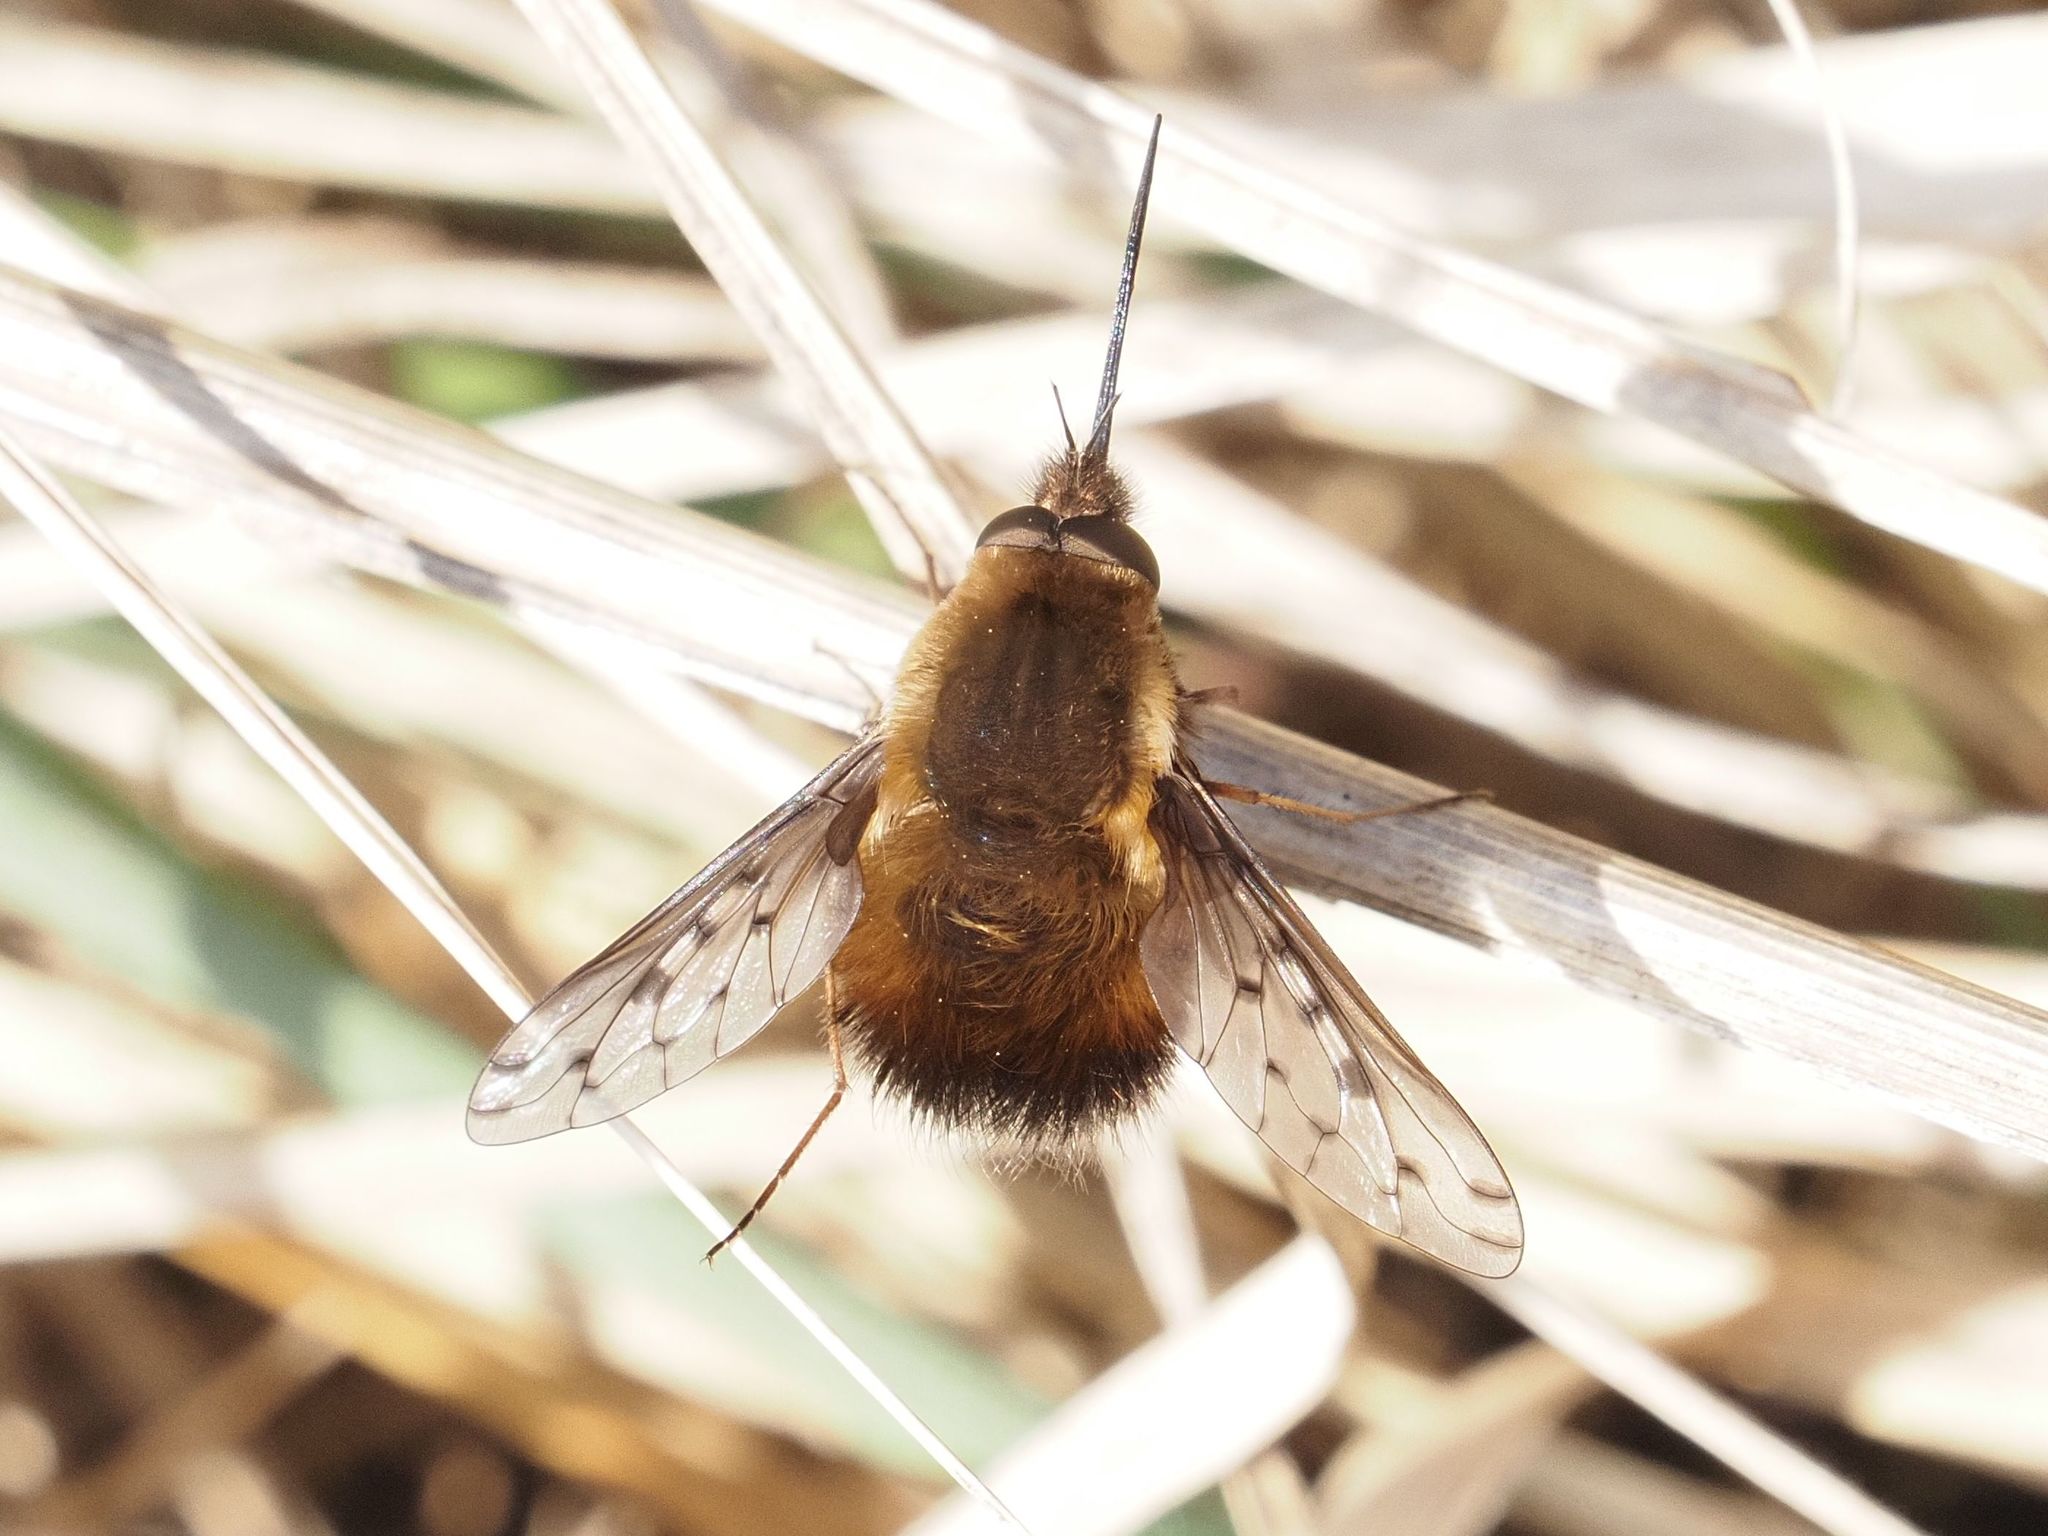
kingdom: Animalia
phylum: Arthropoda
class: Insecta
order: Diptera
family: Bombyliidae
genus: Bombylius
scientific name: Bombylius discolor
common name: Dotted bee-fly
